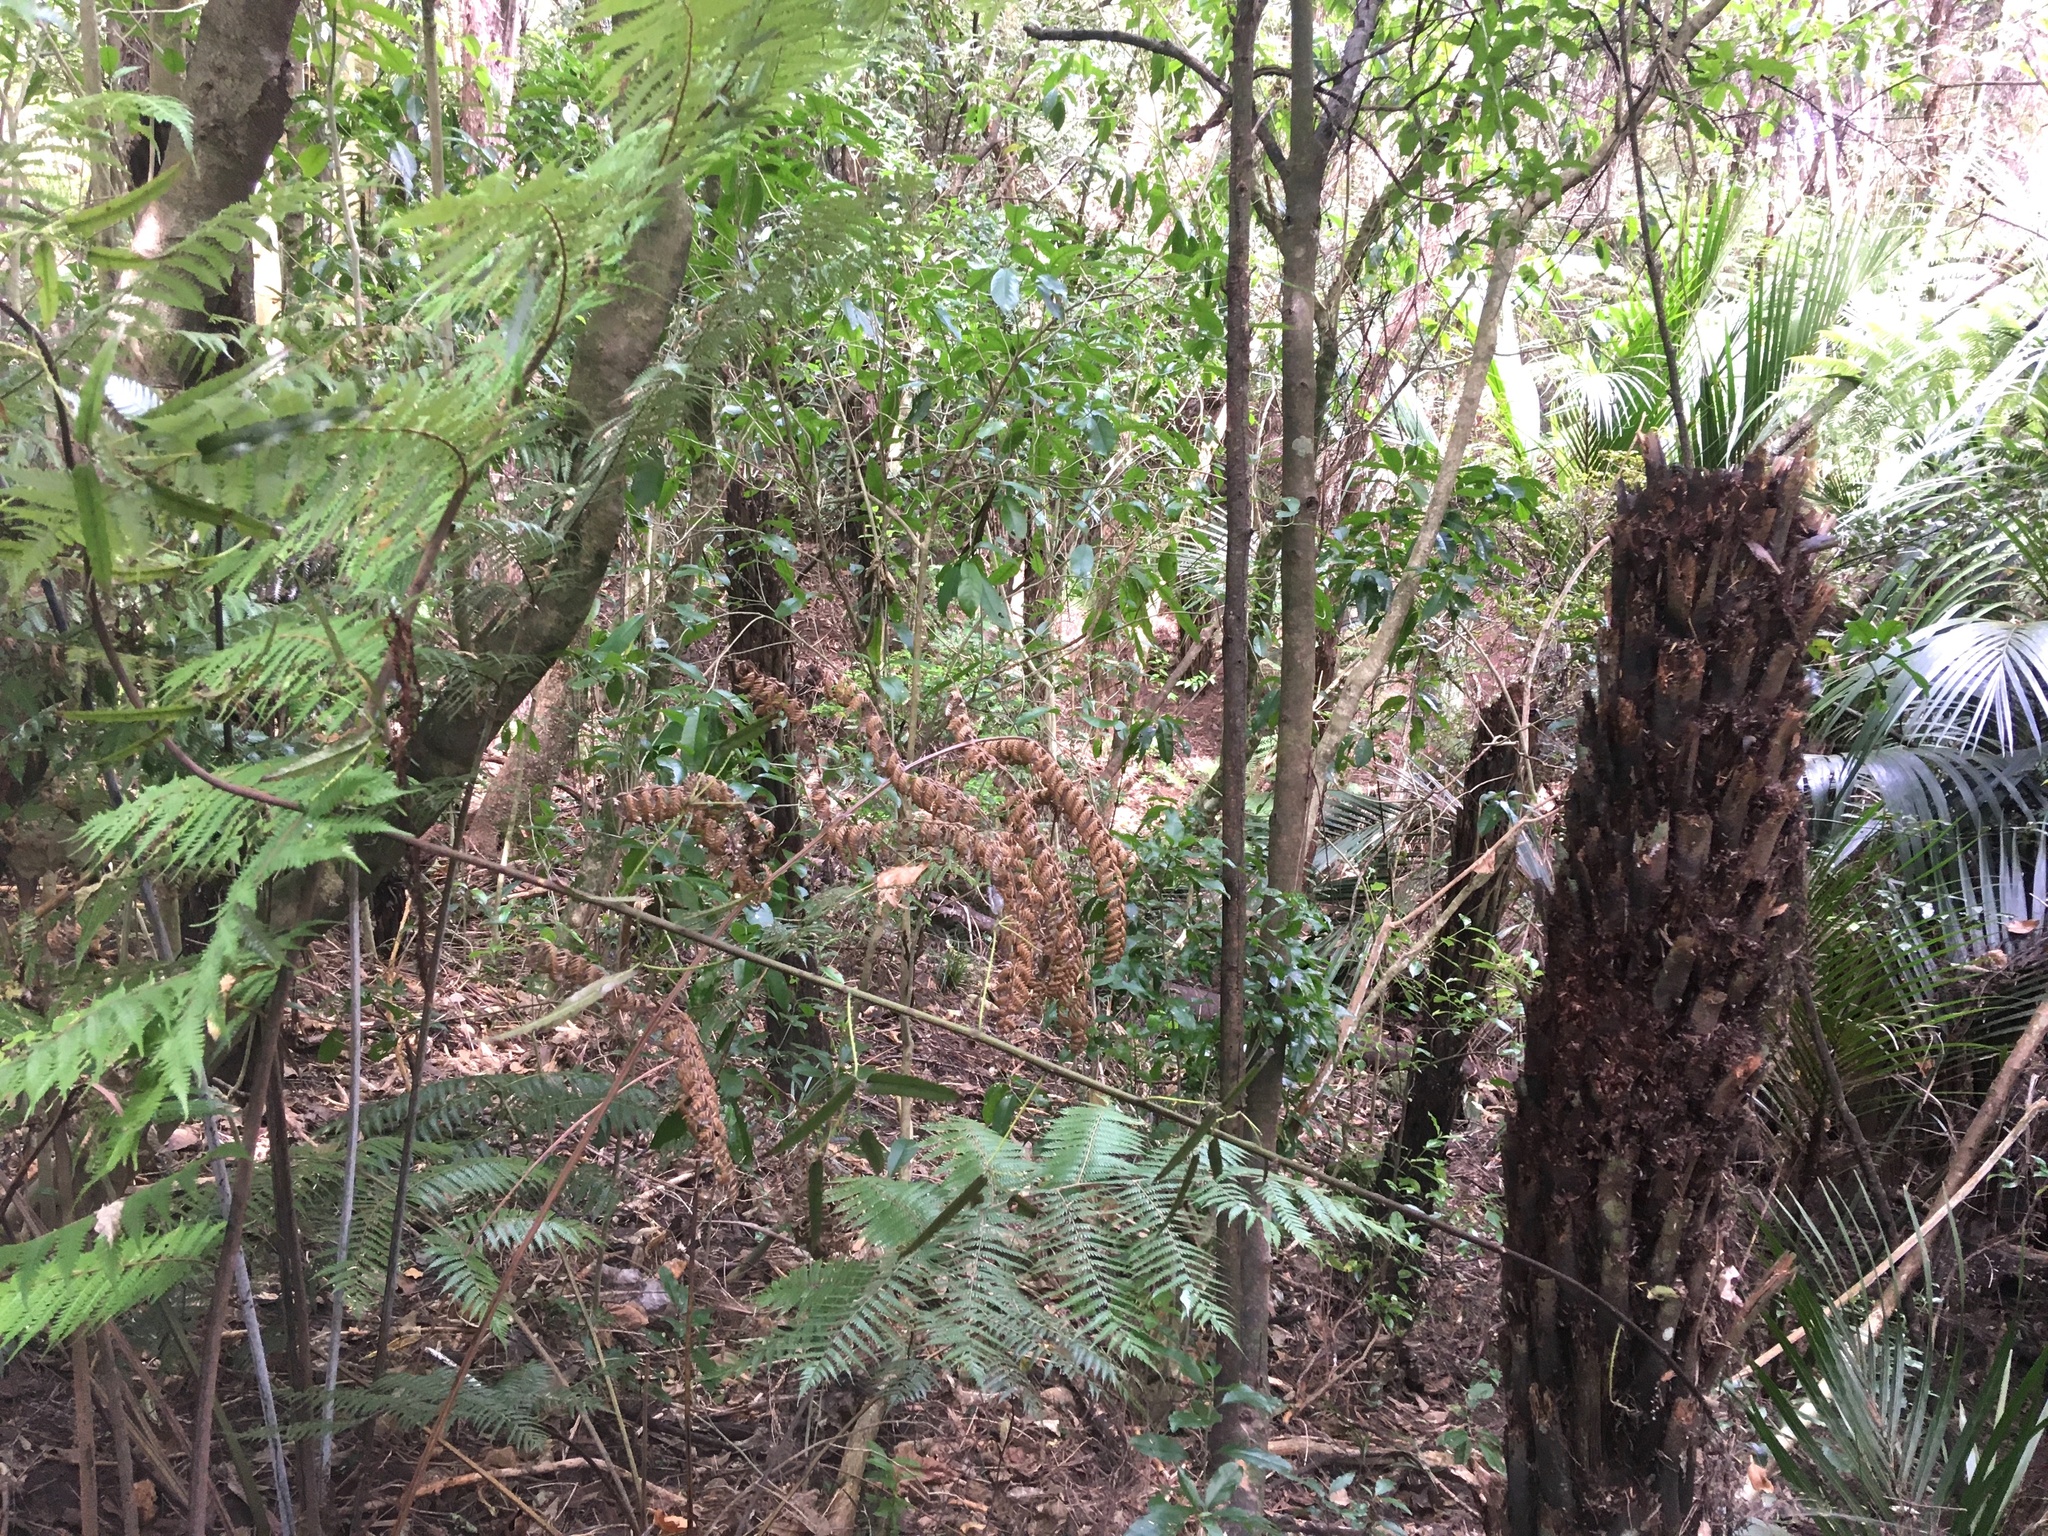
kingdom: Plantae
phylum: Tracheophyta
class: Magnoliopsida
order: Malpighiales
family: Violaceae
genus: Melicytus
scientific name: Melicytus ramiflorus
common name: Mahoe
